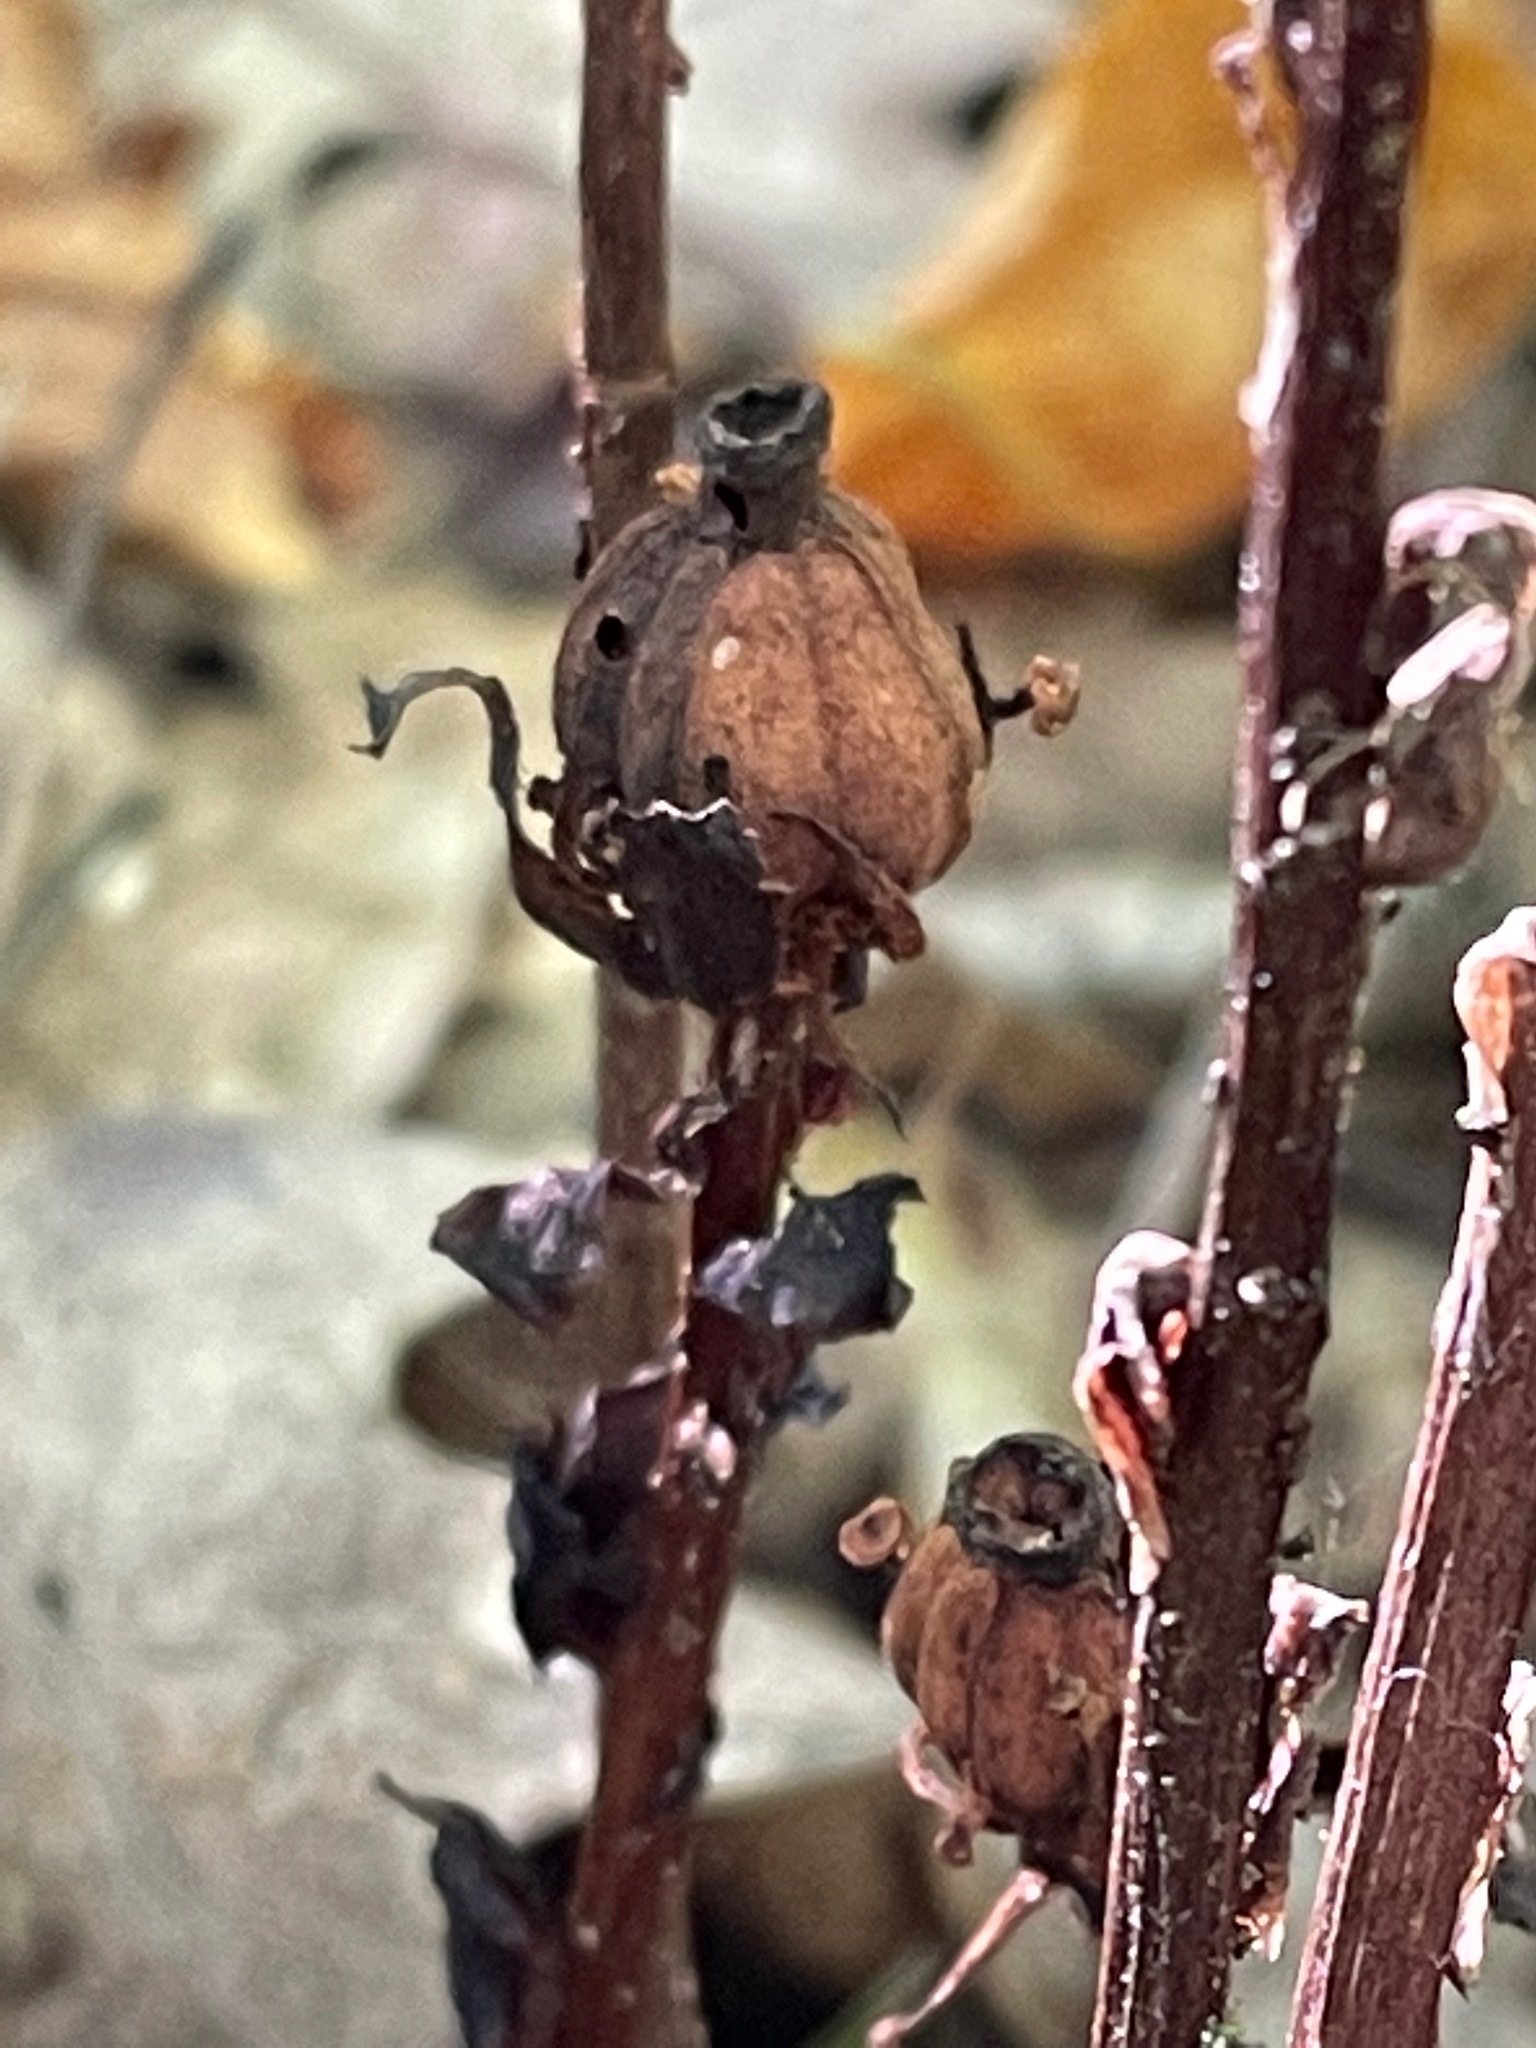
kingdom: Plantae
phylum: Tracheophyta
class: Magnoliopsida
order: Ericales
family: Ericaceae
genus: Monotropa
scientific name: Monotropa uniflora
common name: Convulsion root
